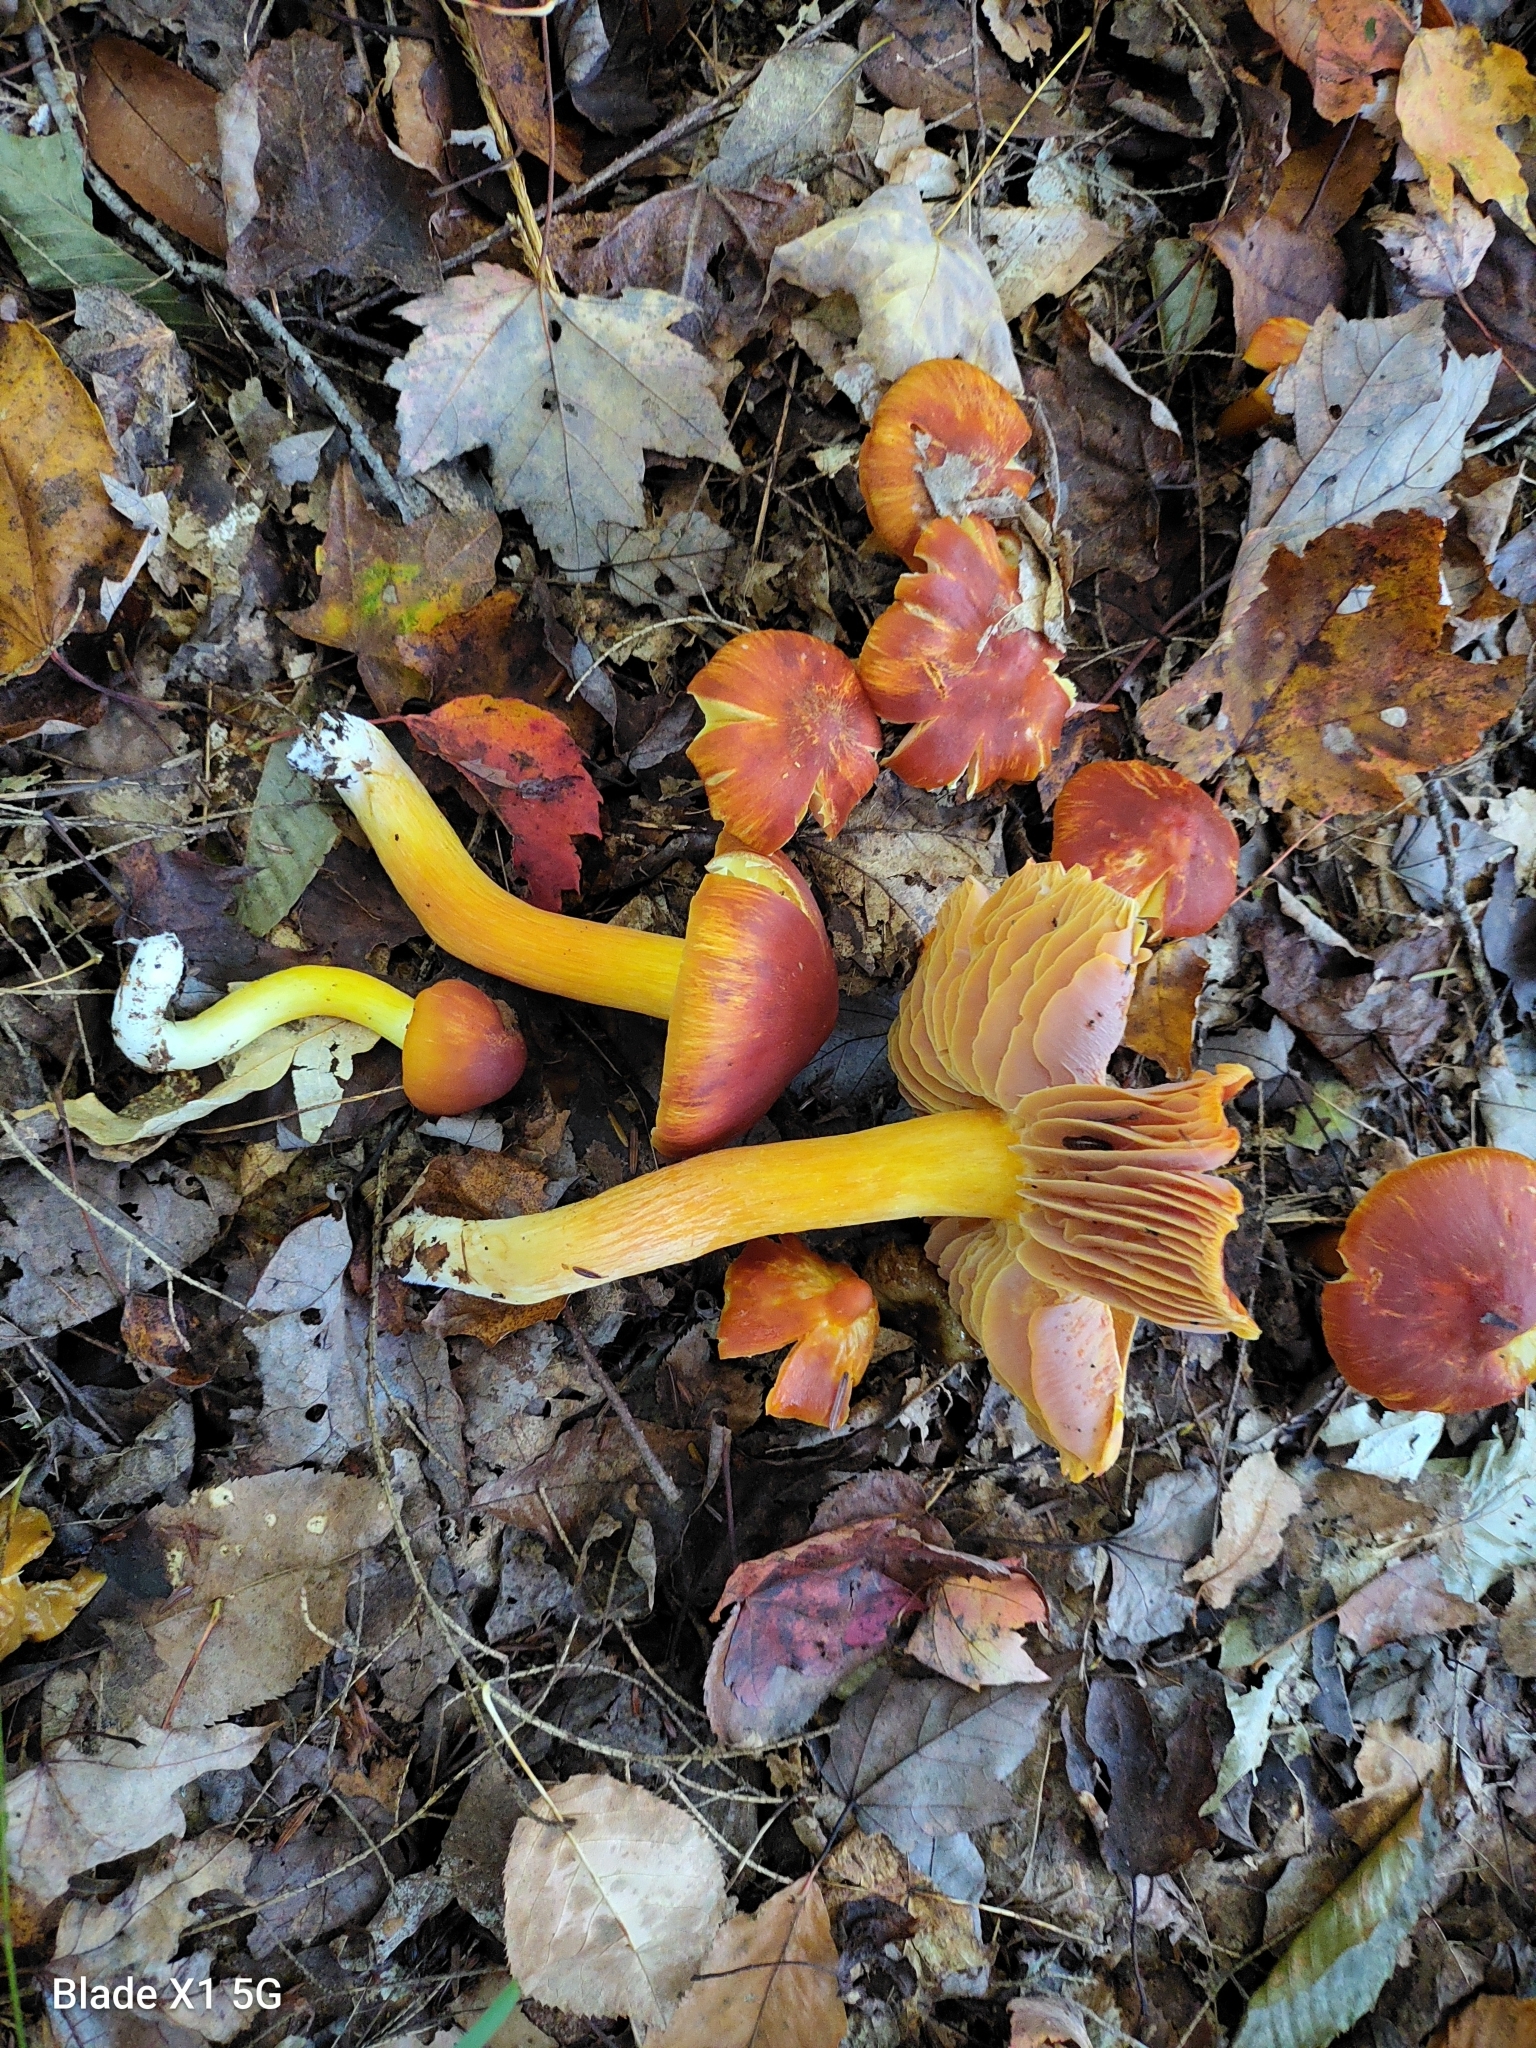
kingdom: Fungi
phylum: Basidiomycota
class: Agaricomycetes
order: Agaricales
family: Hygrophoraceae
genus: Hygrocybe
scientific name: Hygrocybe punicea
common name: Crimson waxcap
